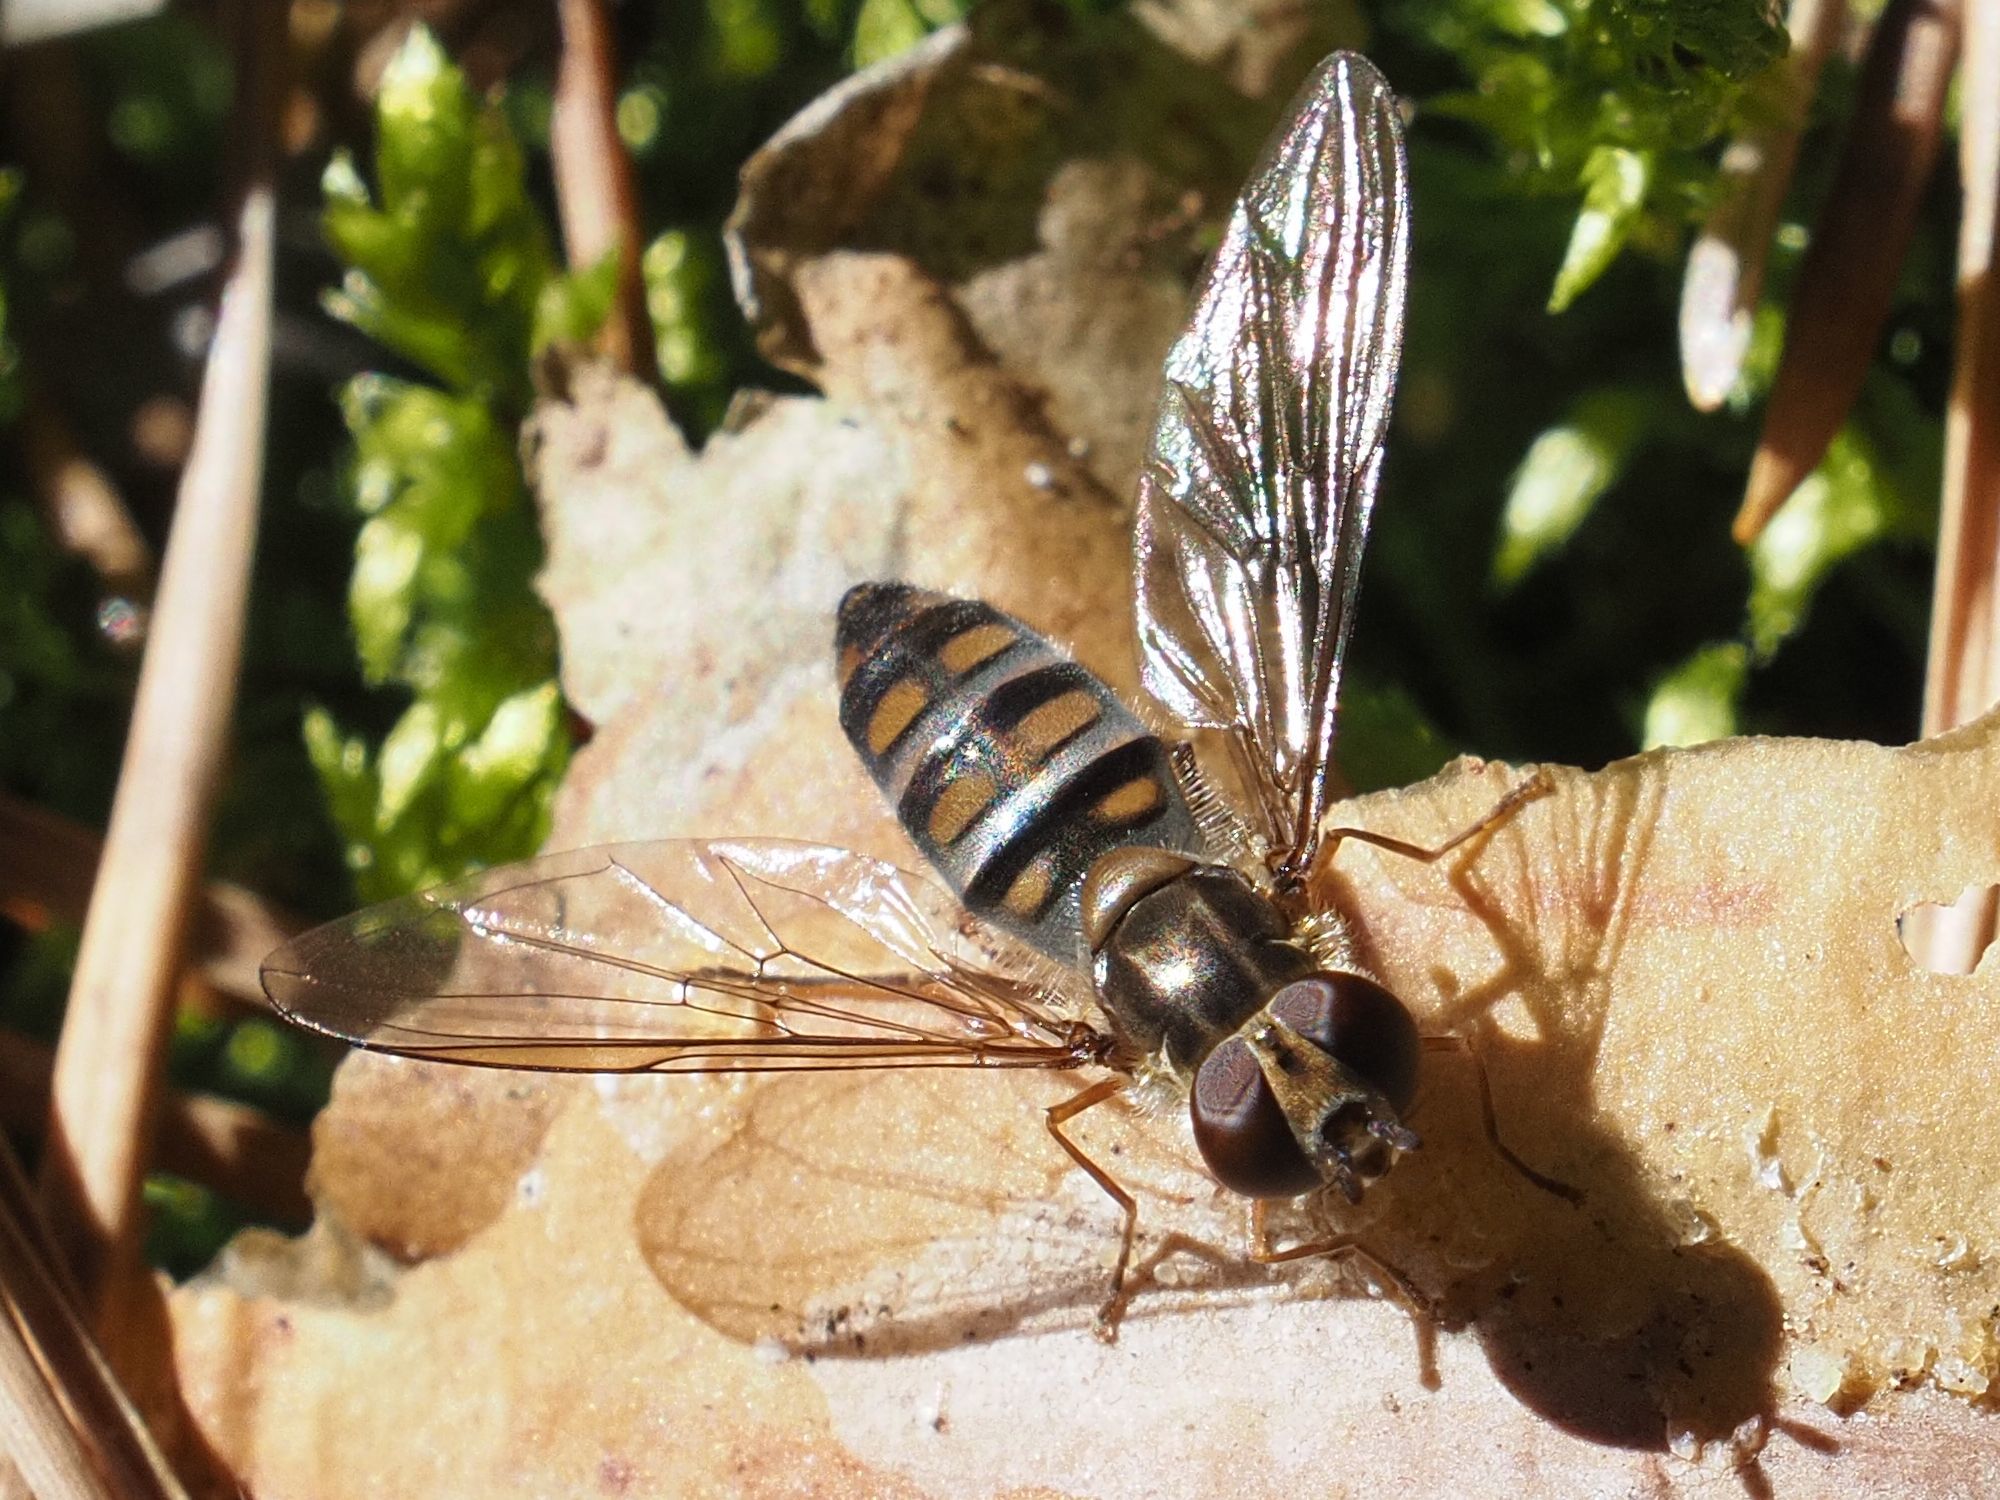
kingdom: Animalia
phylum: Arthropoda
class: Insecta
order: Diptera
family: Syrphidae
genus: Episyrphus
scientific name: Episyrphus balteatus
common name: Marmalade hoverfly
